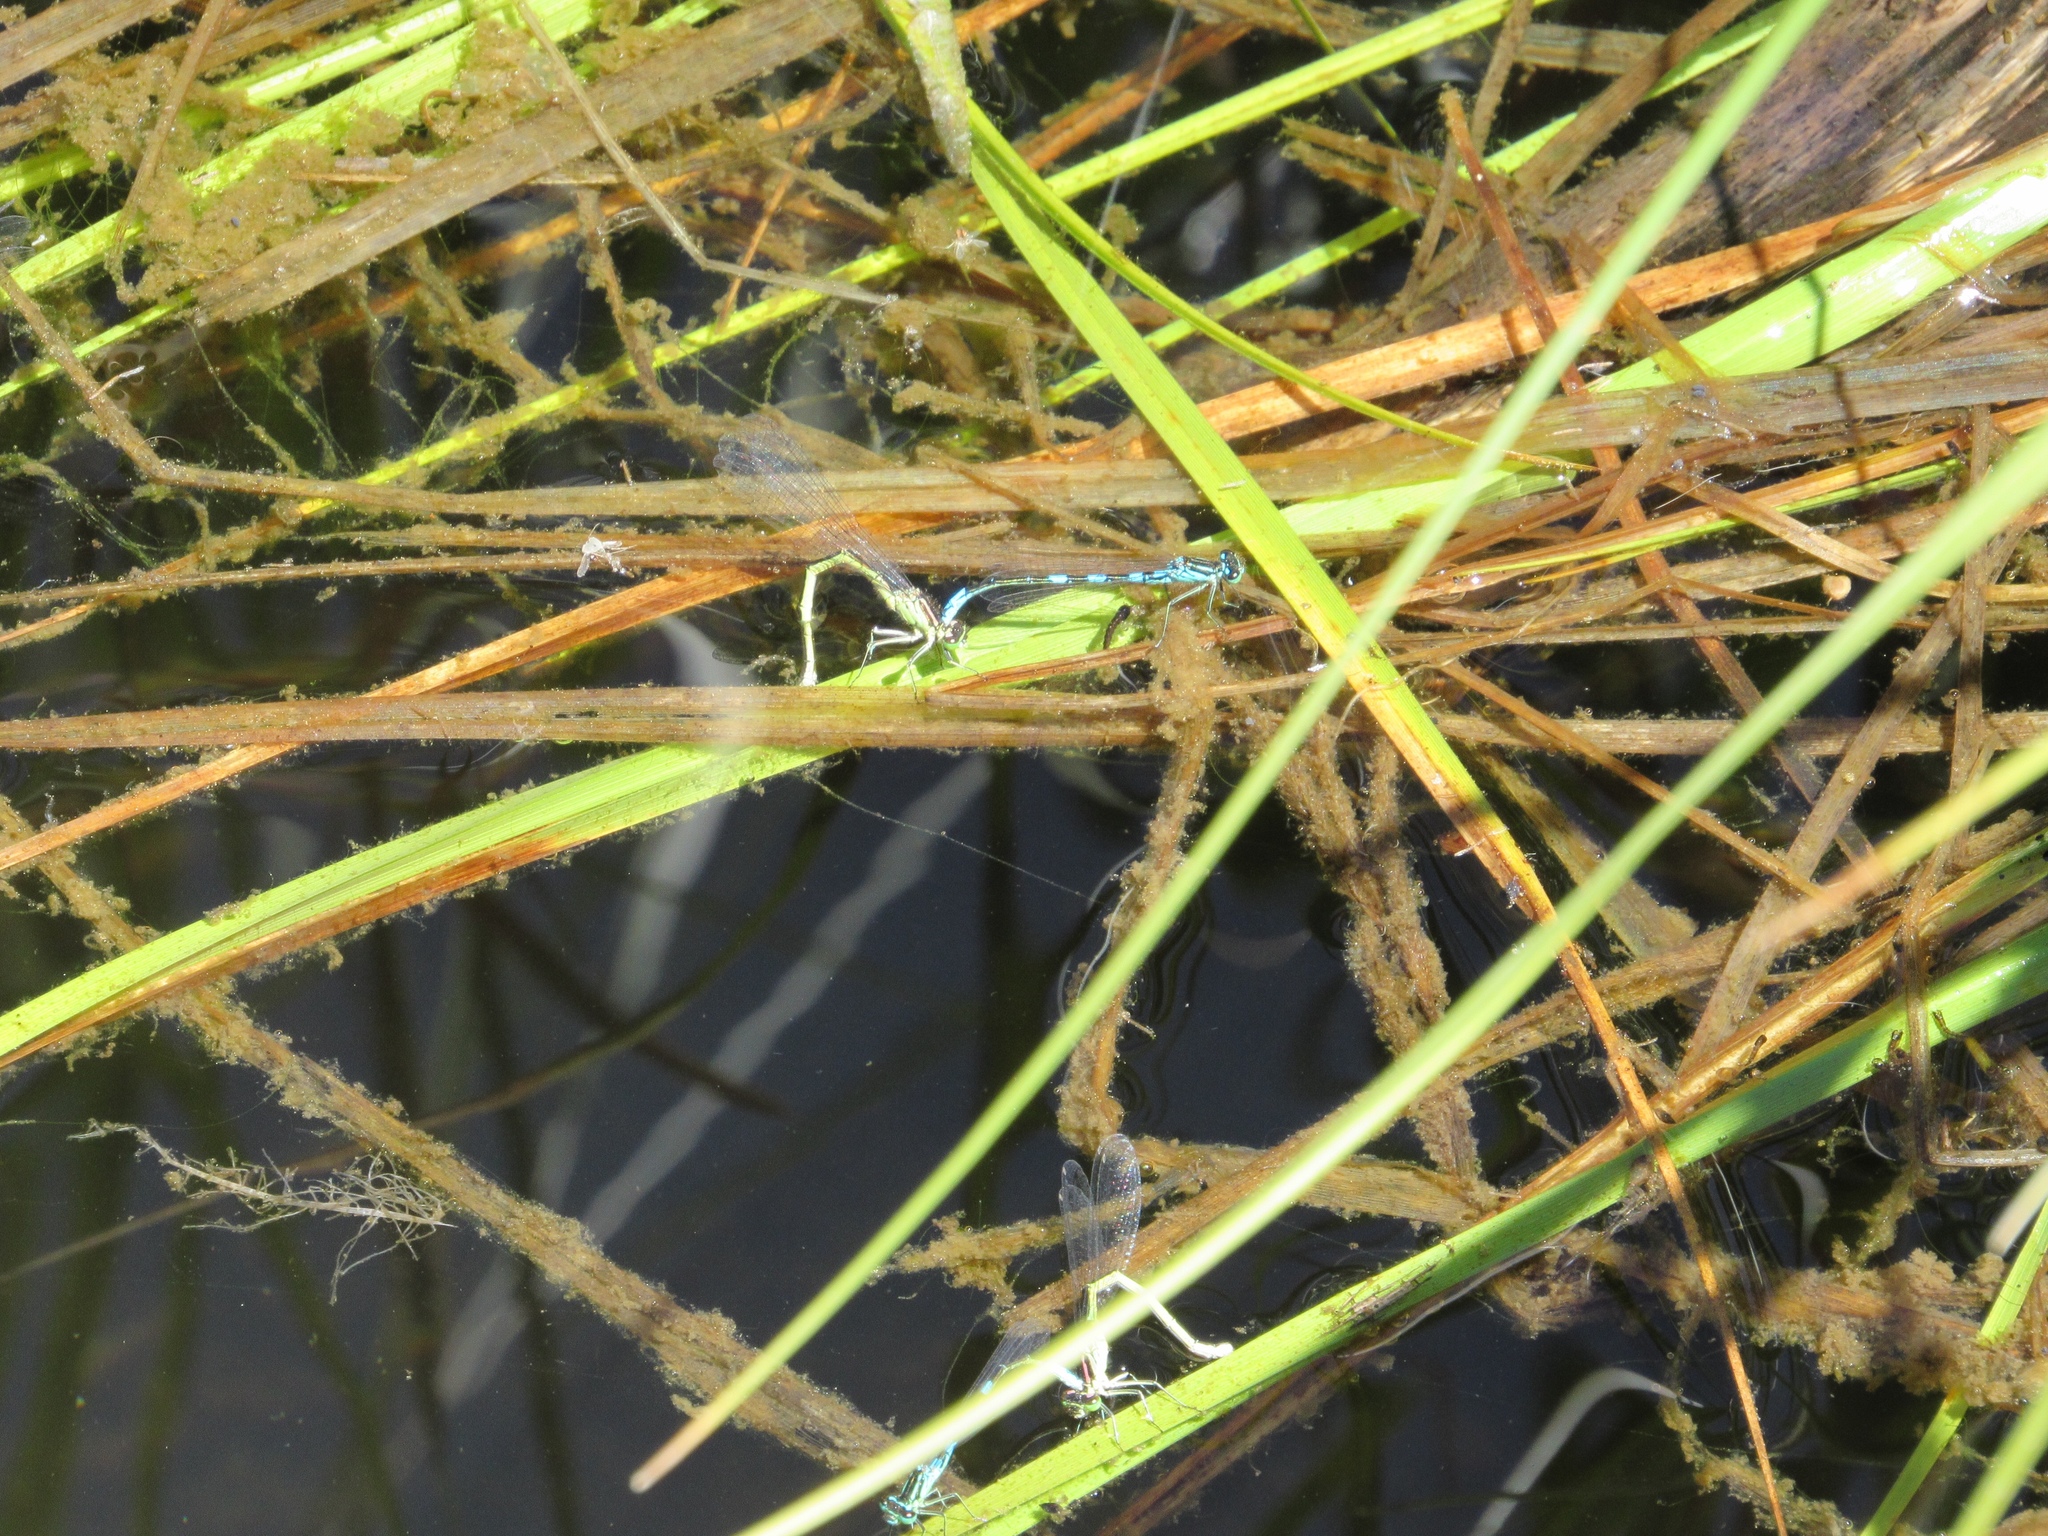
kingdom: Animalia
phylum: Arthropoda
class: Insecta
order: Odonata
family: Coenagrionidae
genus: Coenagrion
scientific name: Coenagrion resolutum
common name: Taiga bluet
